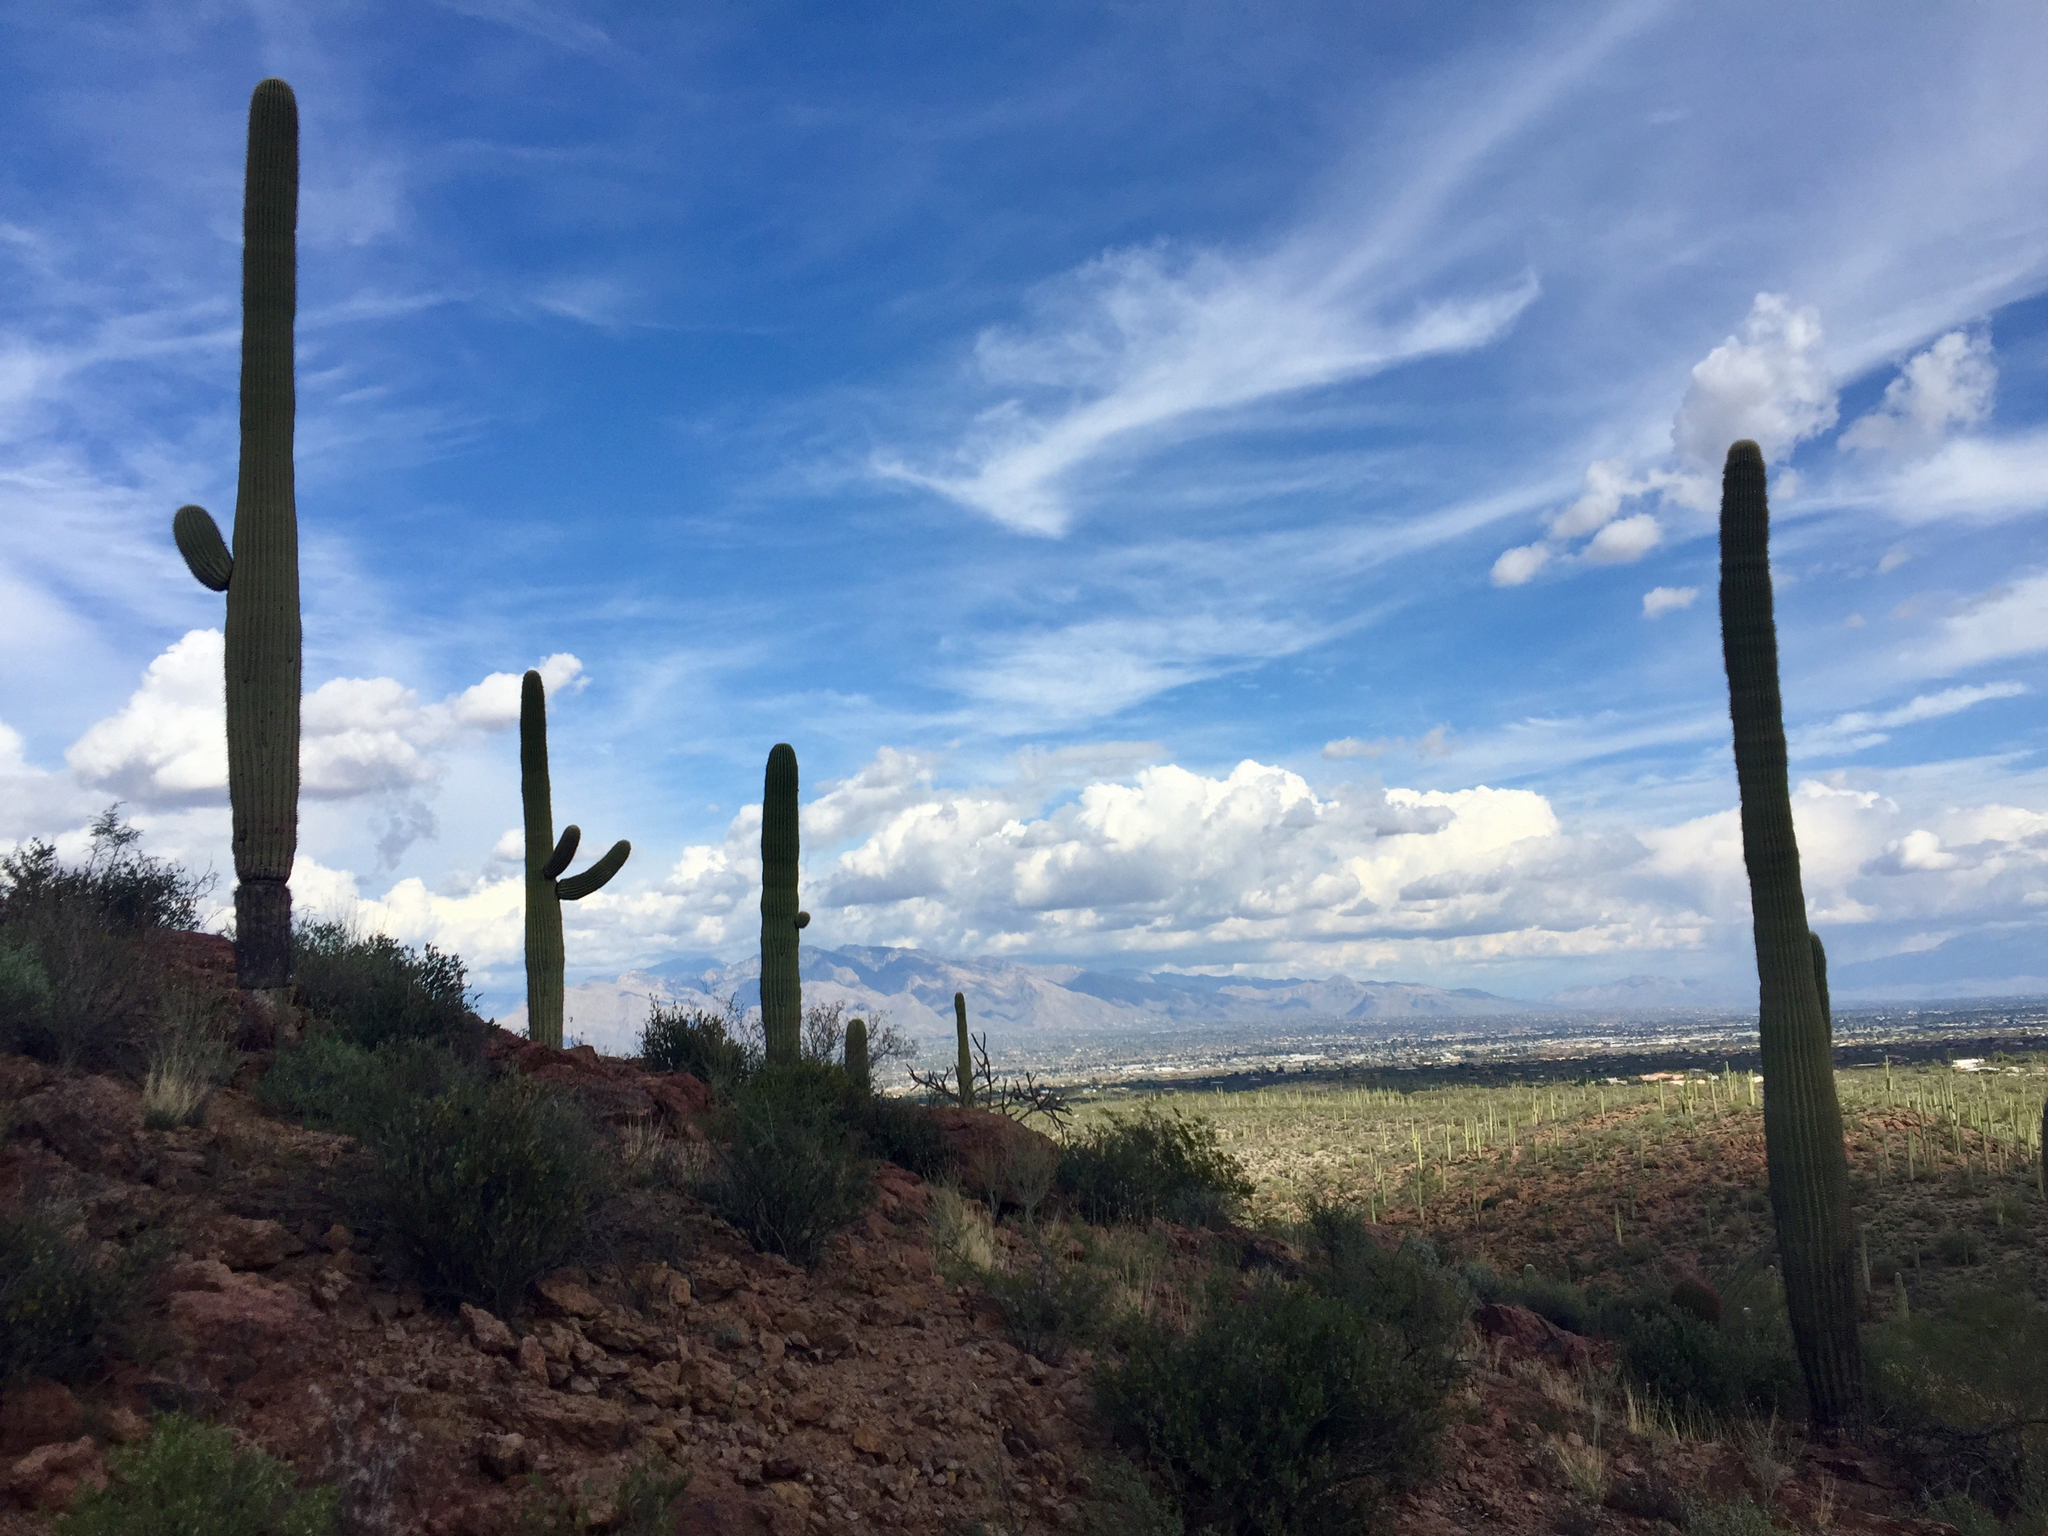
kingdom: Plantae
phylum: Tracheophyta
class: Magnoliopsida
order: Caryophyllales
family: Cactaceae
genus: Carnegiea
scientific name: Carnegiea gigantea
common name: Saguaro
